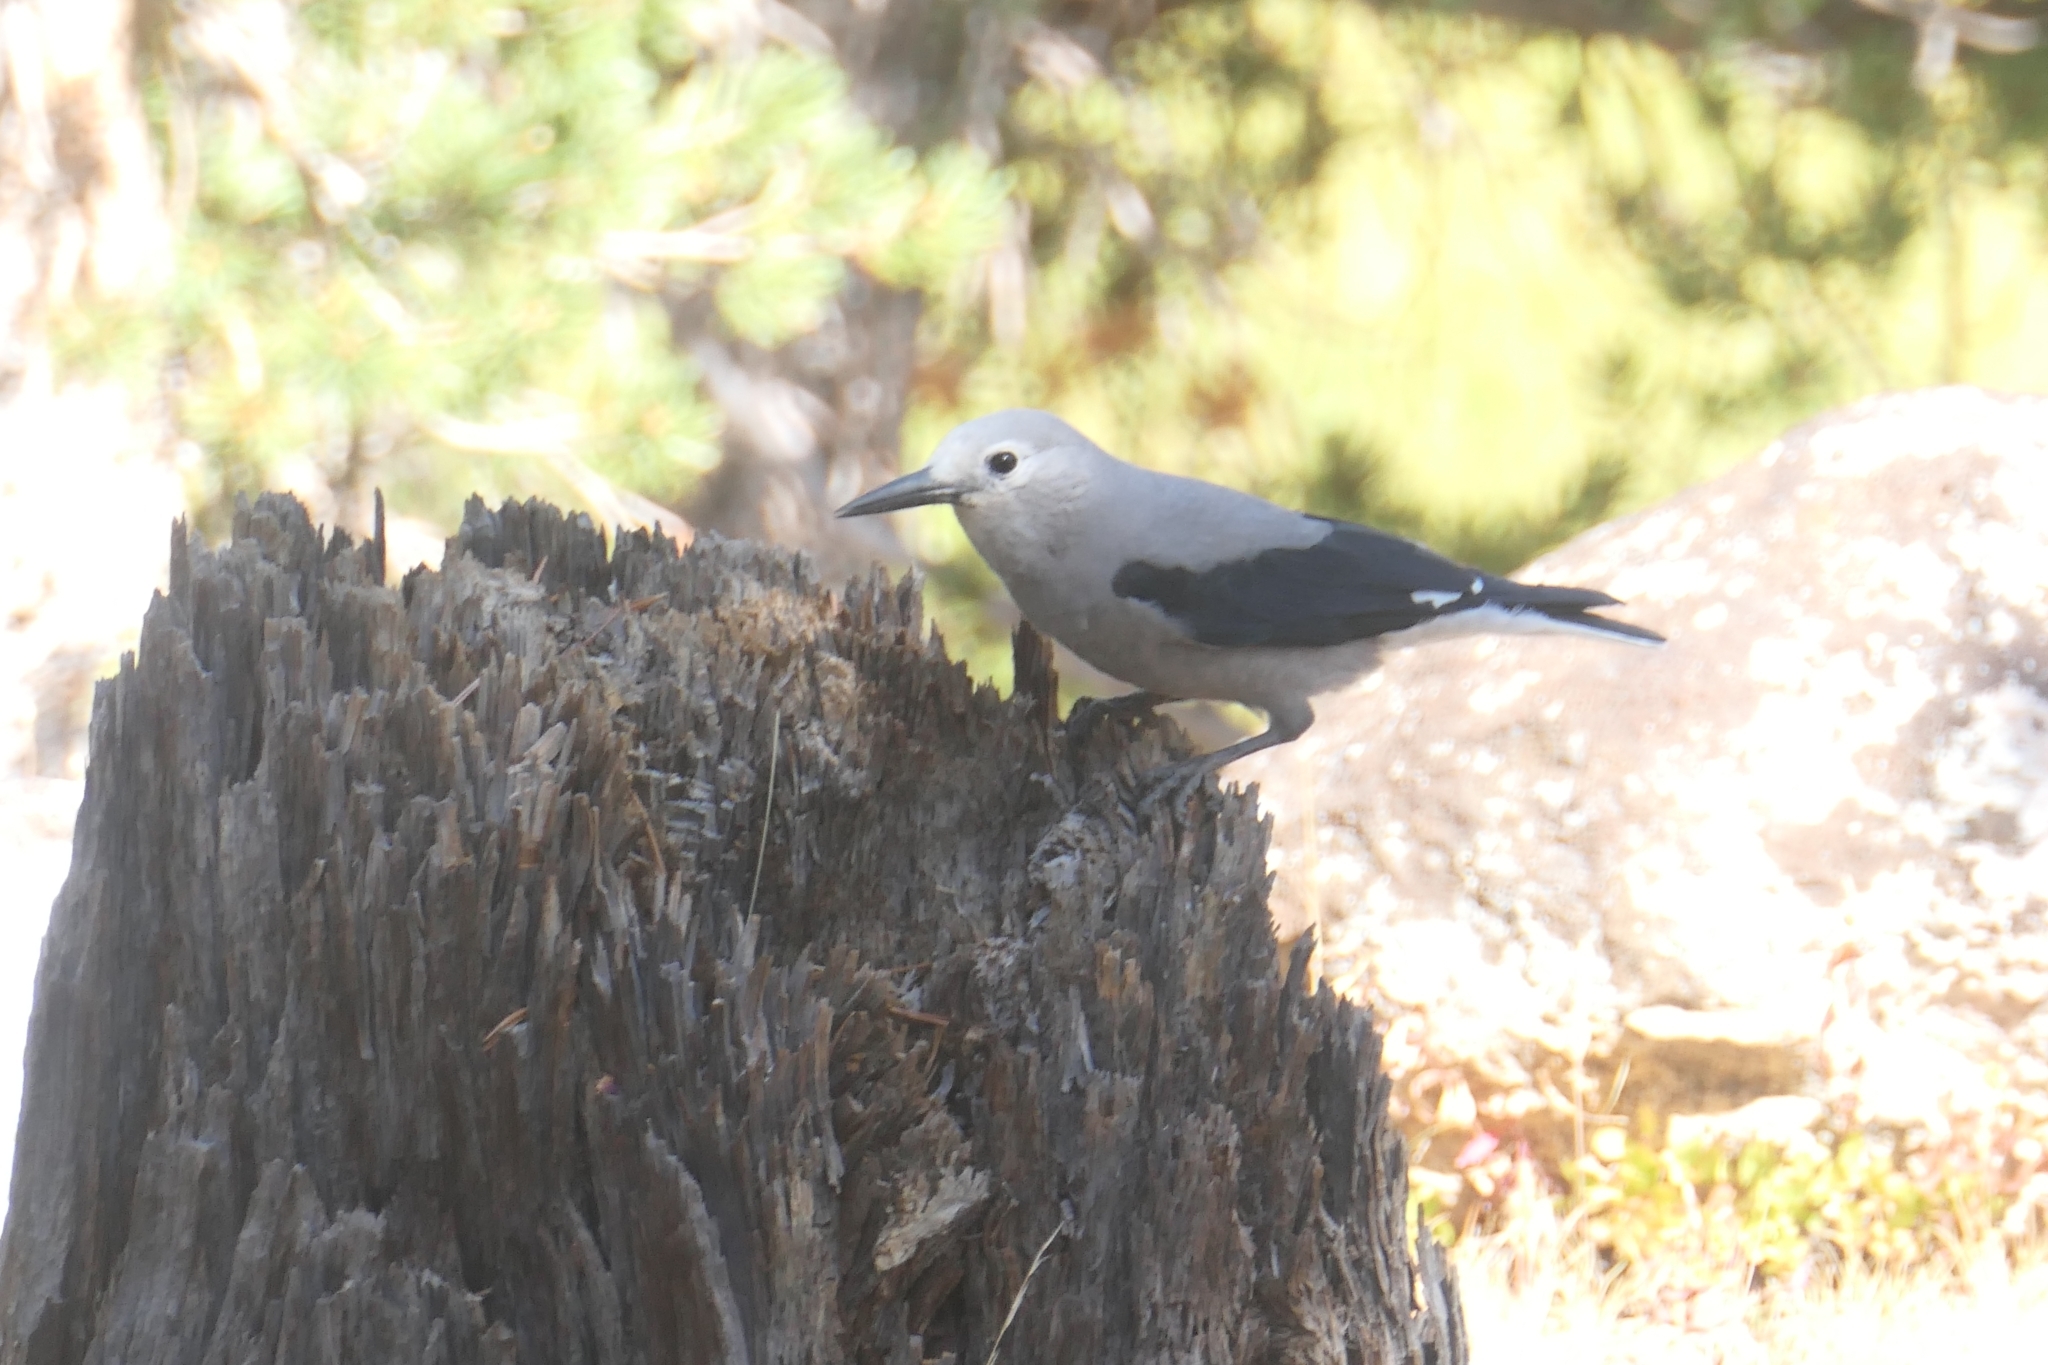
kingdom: Animalia
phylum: Chordata
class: Aves
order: Passeriformes
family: Corvidae
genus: Nucifraga
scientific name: Nucifraga columbiana
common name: Clark's nutcracker
